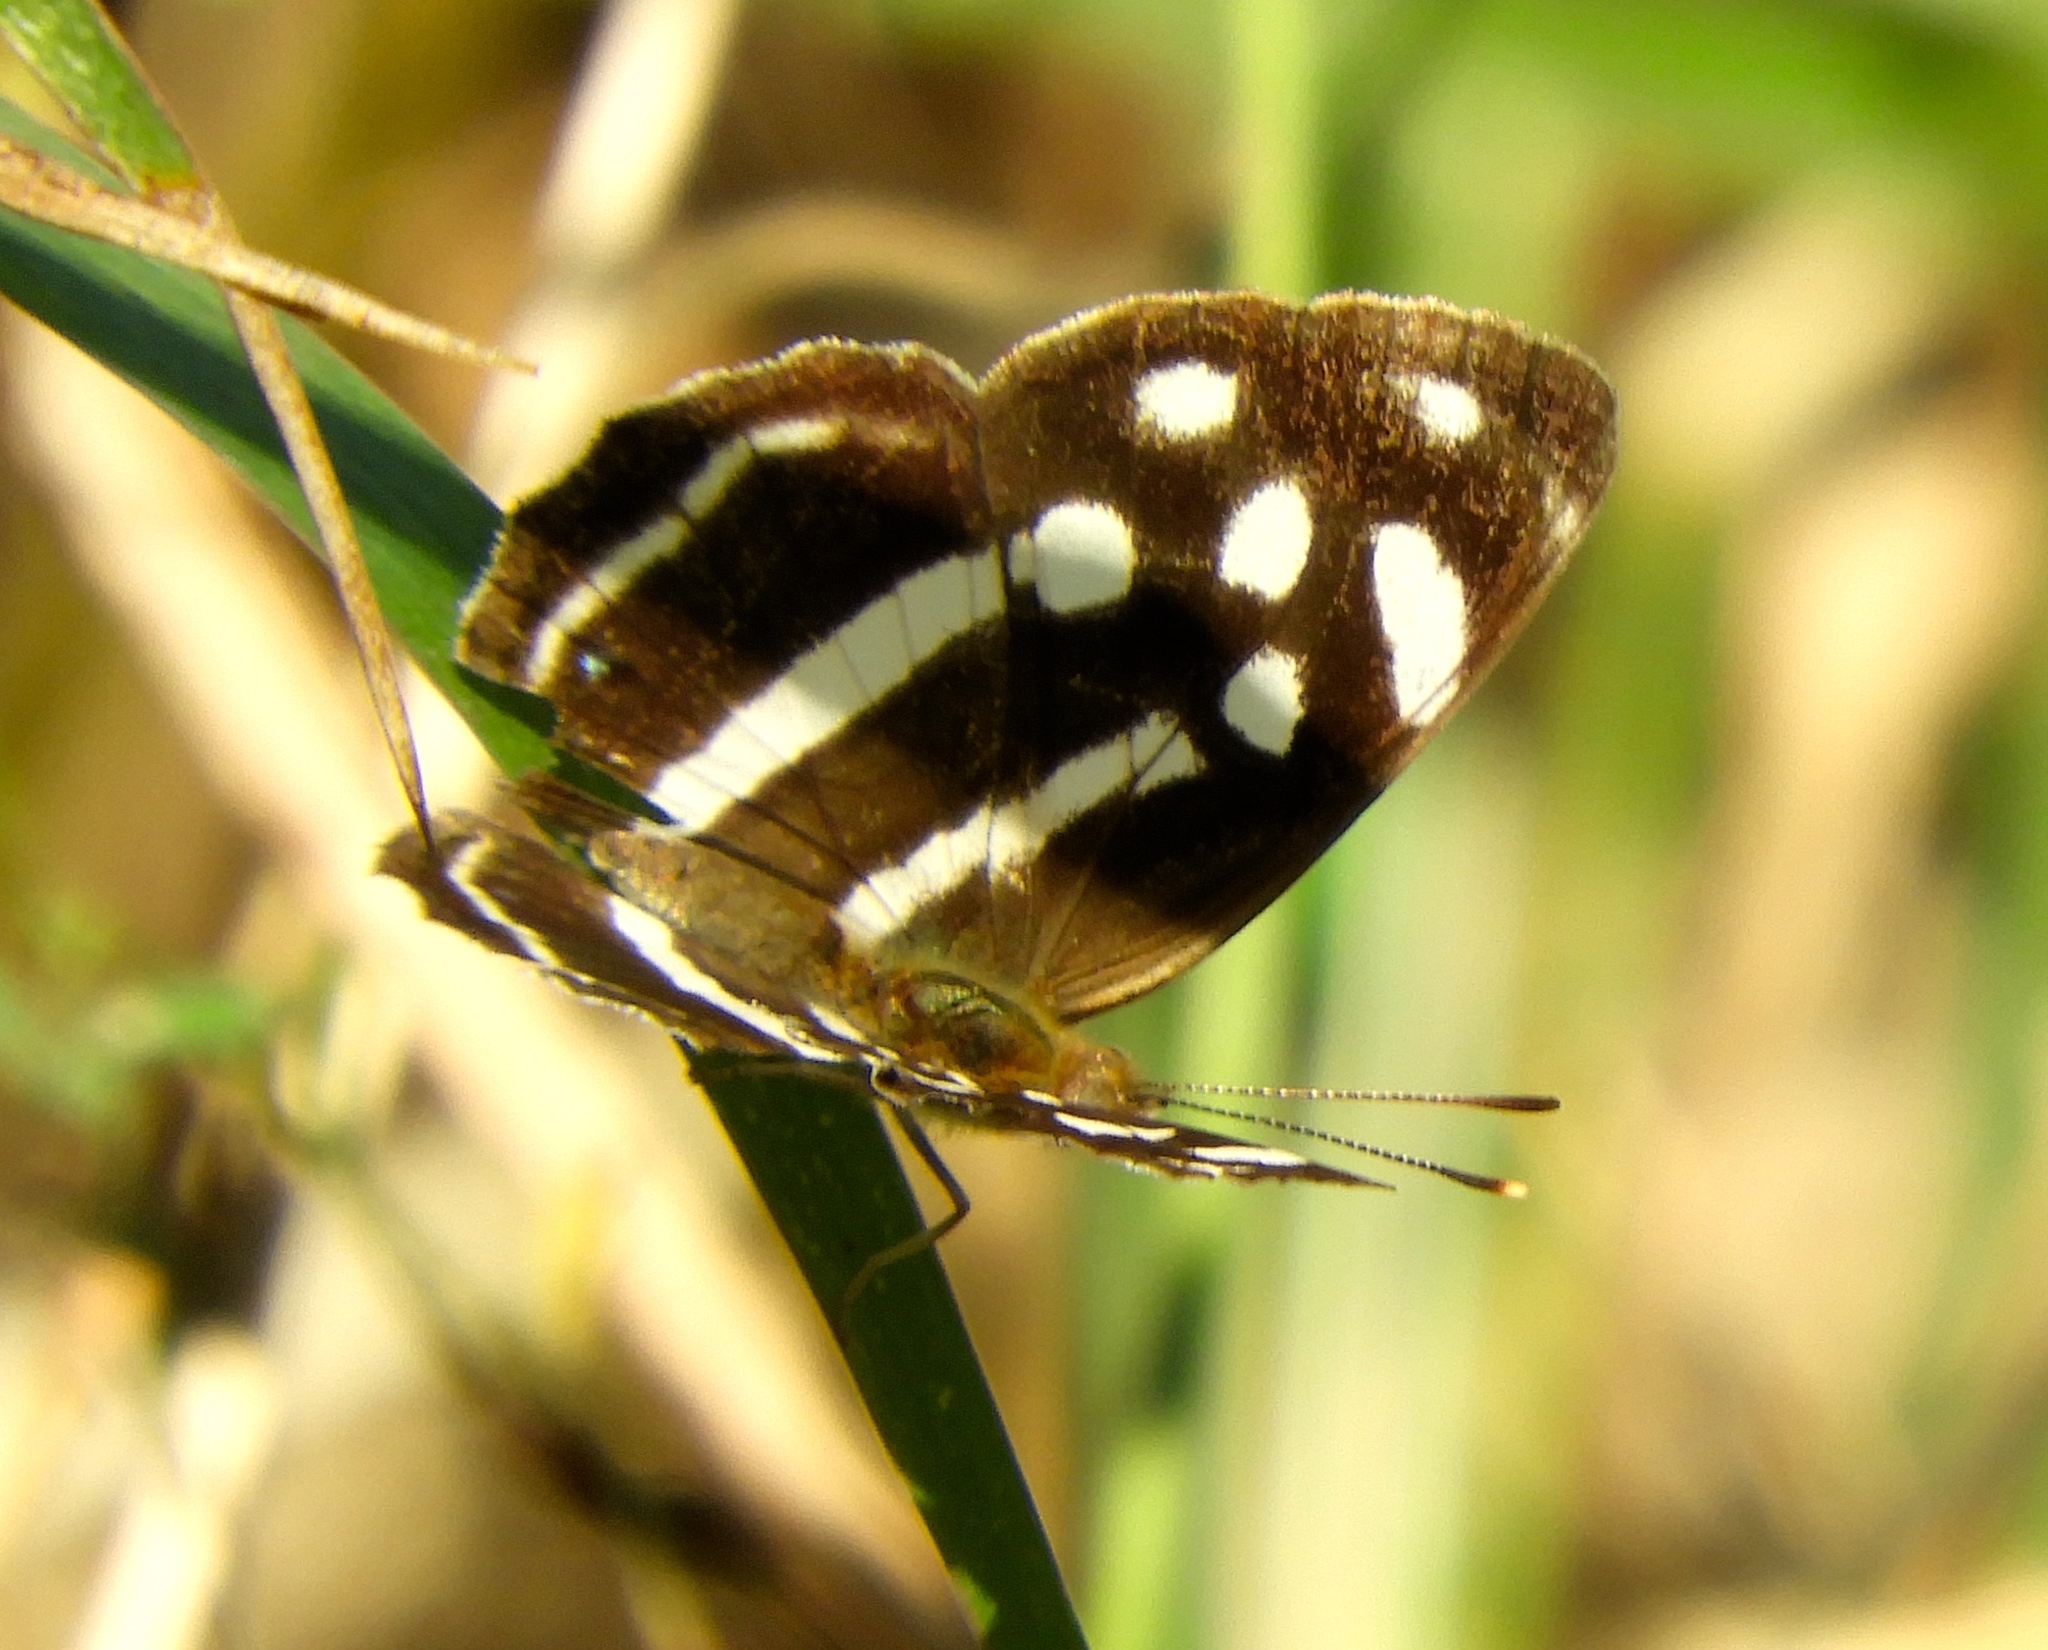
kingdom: Animalia
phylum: Arthropoda
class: Insecta
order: Lepidoptera
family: Nymphalidae
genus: Dynamine
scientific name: Dynamine mylitta
